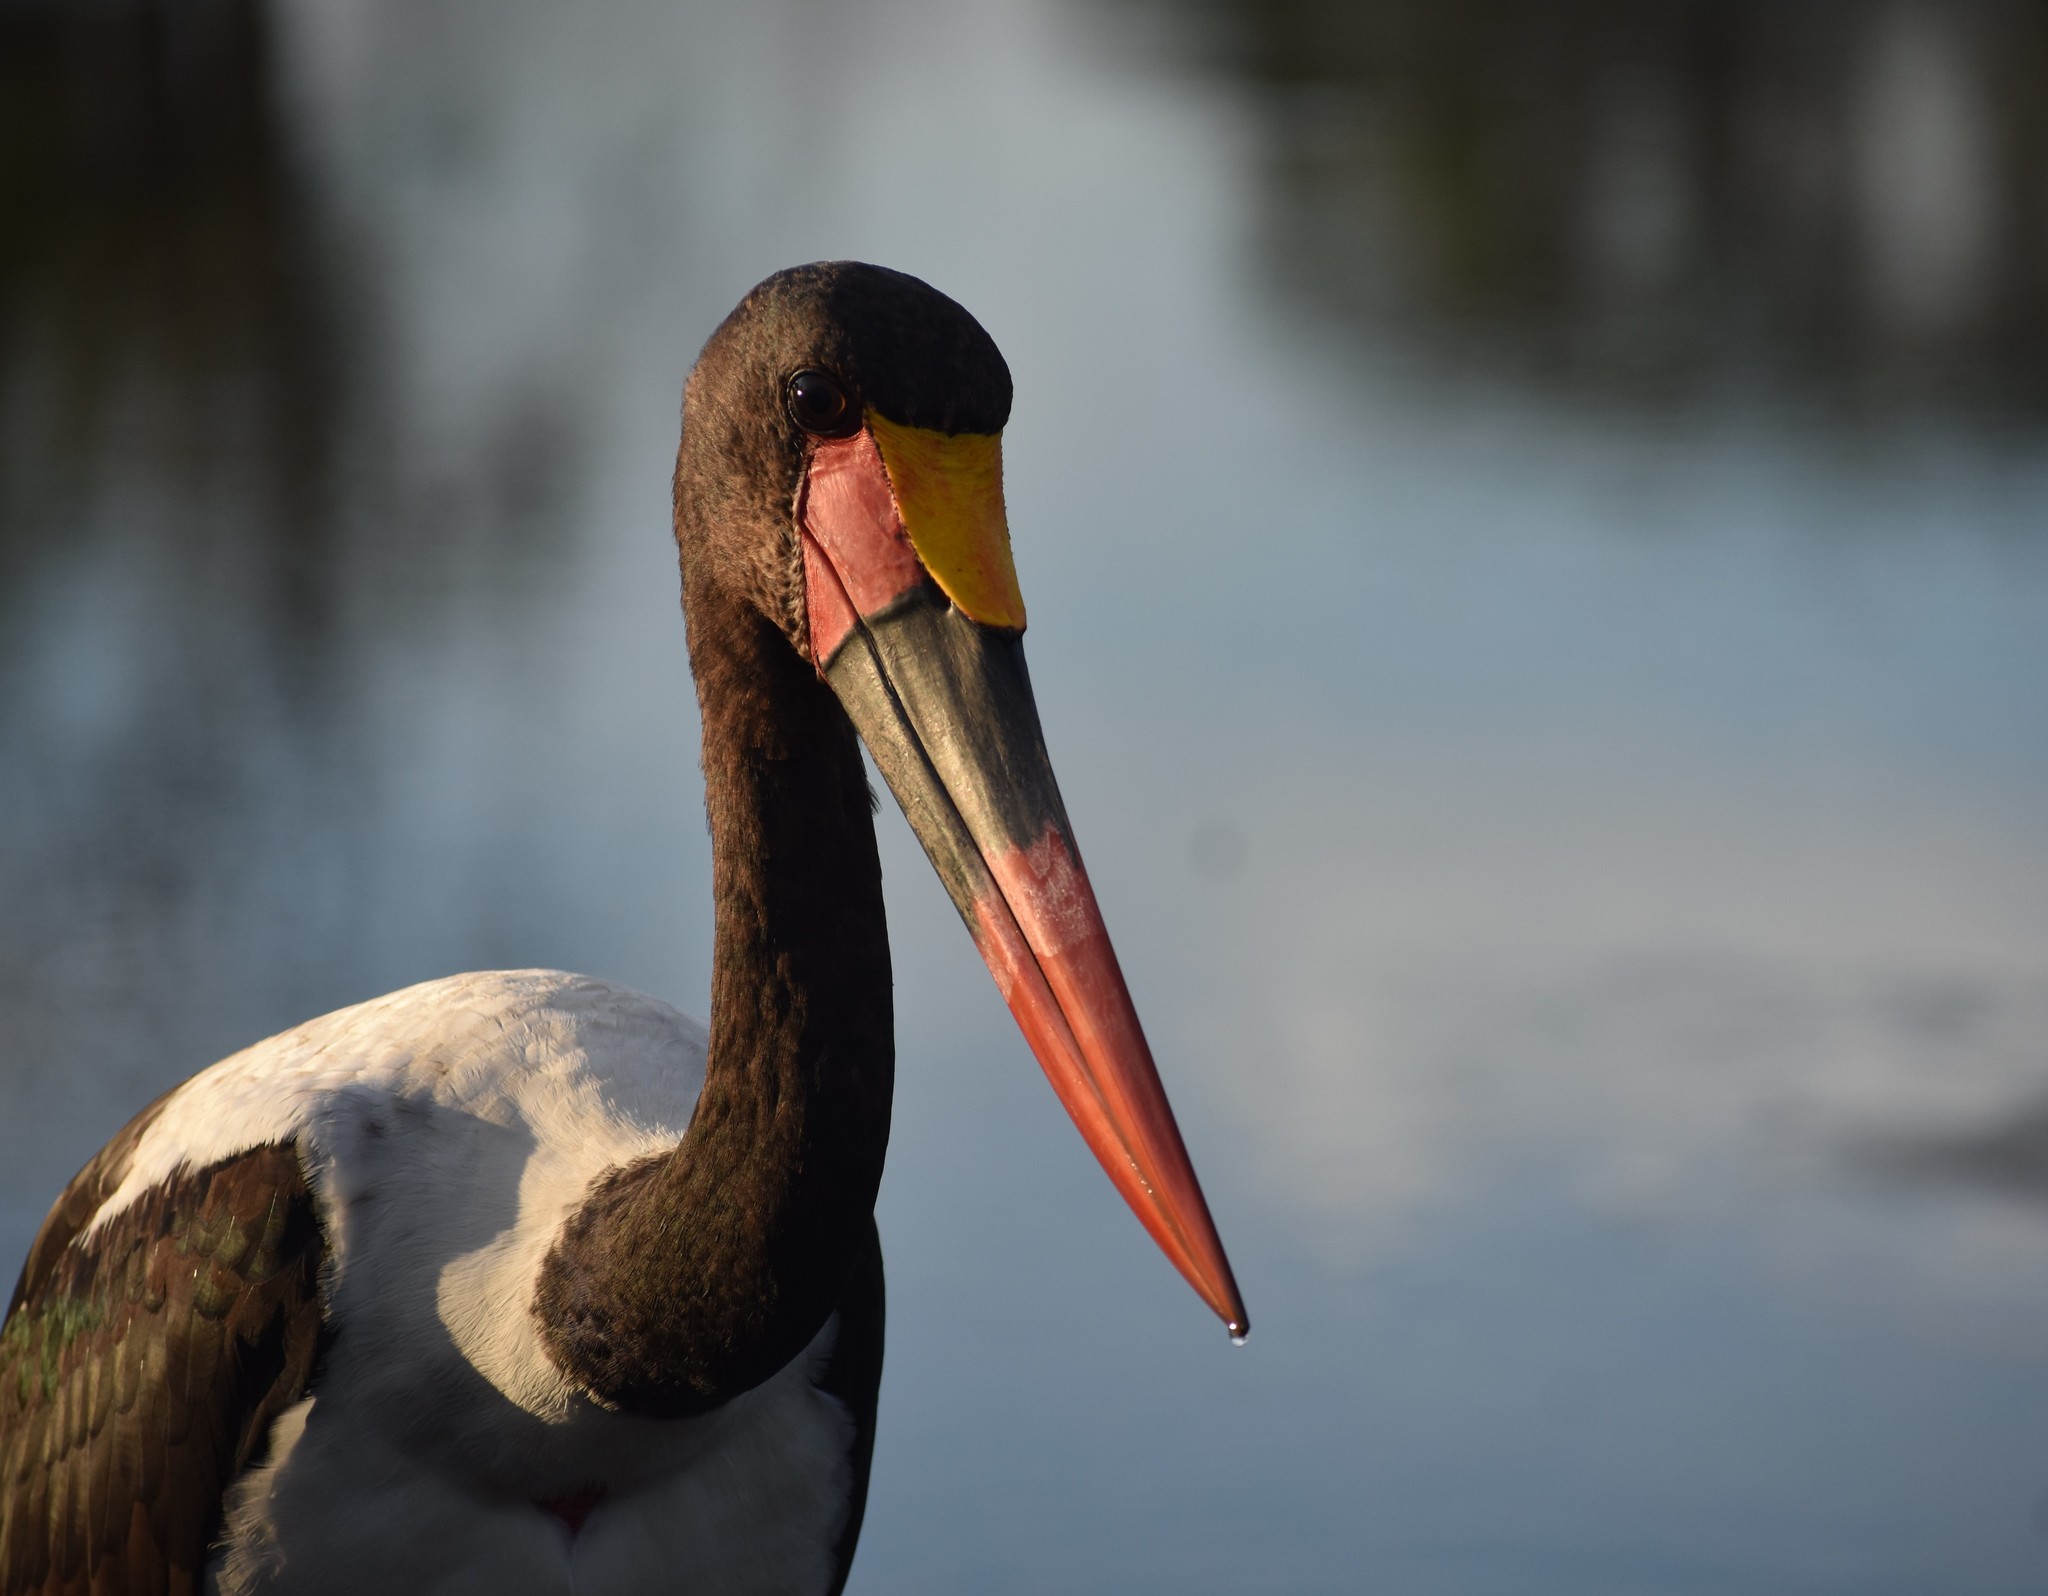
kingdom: Animalia
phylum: Chordata
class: Aves
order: Ciconiiformes
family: Ciconiidae
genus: Ephippiorhynchus
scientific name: Ephippiorhynchus senegalensis
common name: Saddle-billed stork
